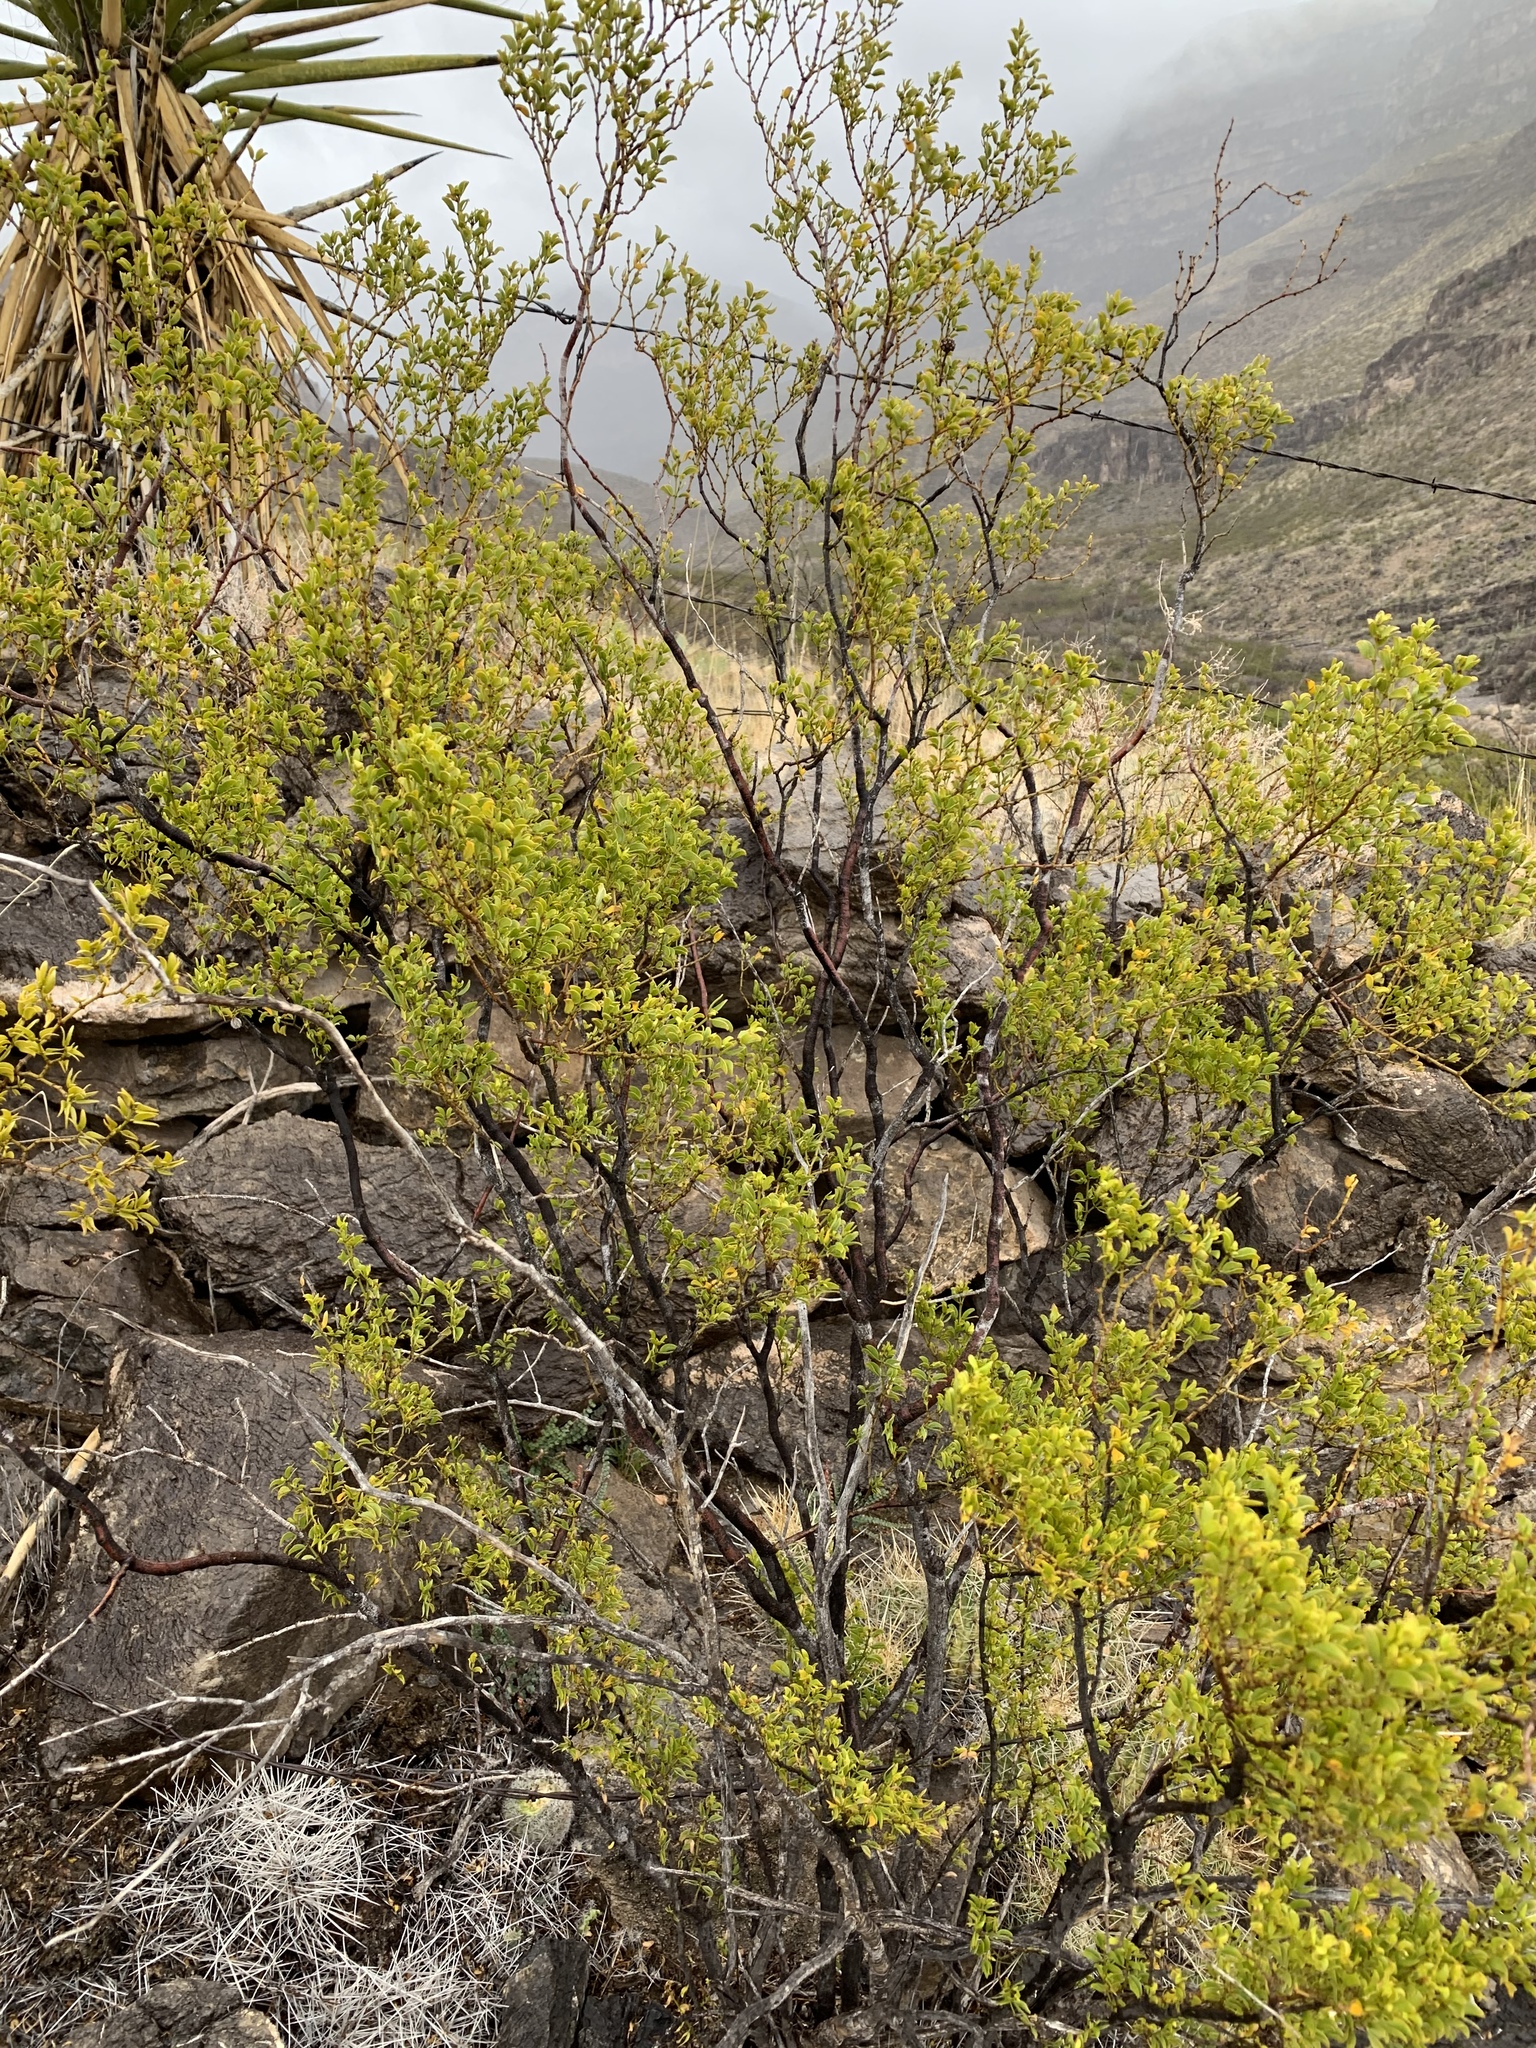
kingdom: Plantae
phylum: Tracheophyta
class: Magnoliopsida
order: Zygophyllales
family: Zygophyllaceae
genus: Larrea
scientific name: Larrea tridentata
